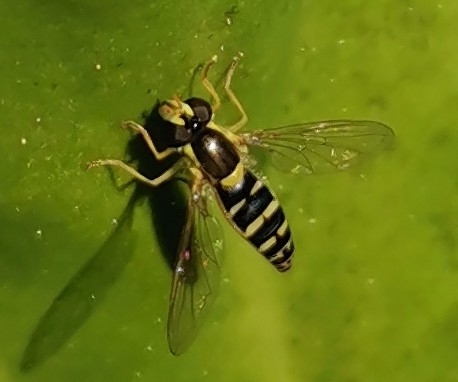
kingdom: Animalia
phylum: Arthropoda
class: Insecta
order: Diptera
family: Syrphidae
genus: Sphaerophoria
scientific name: Sphaerophoria
